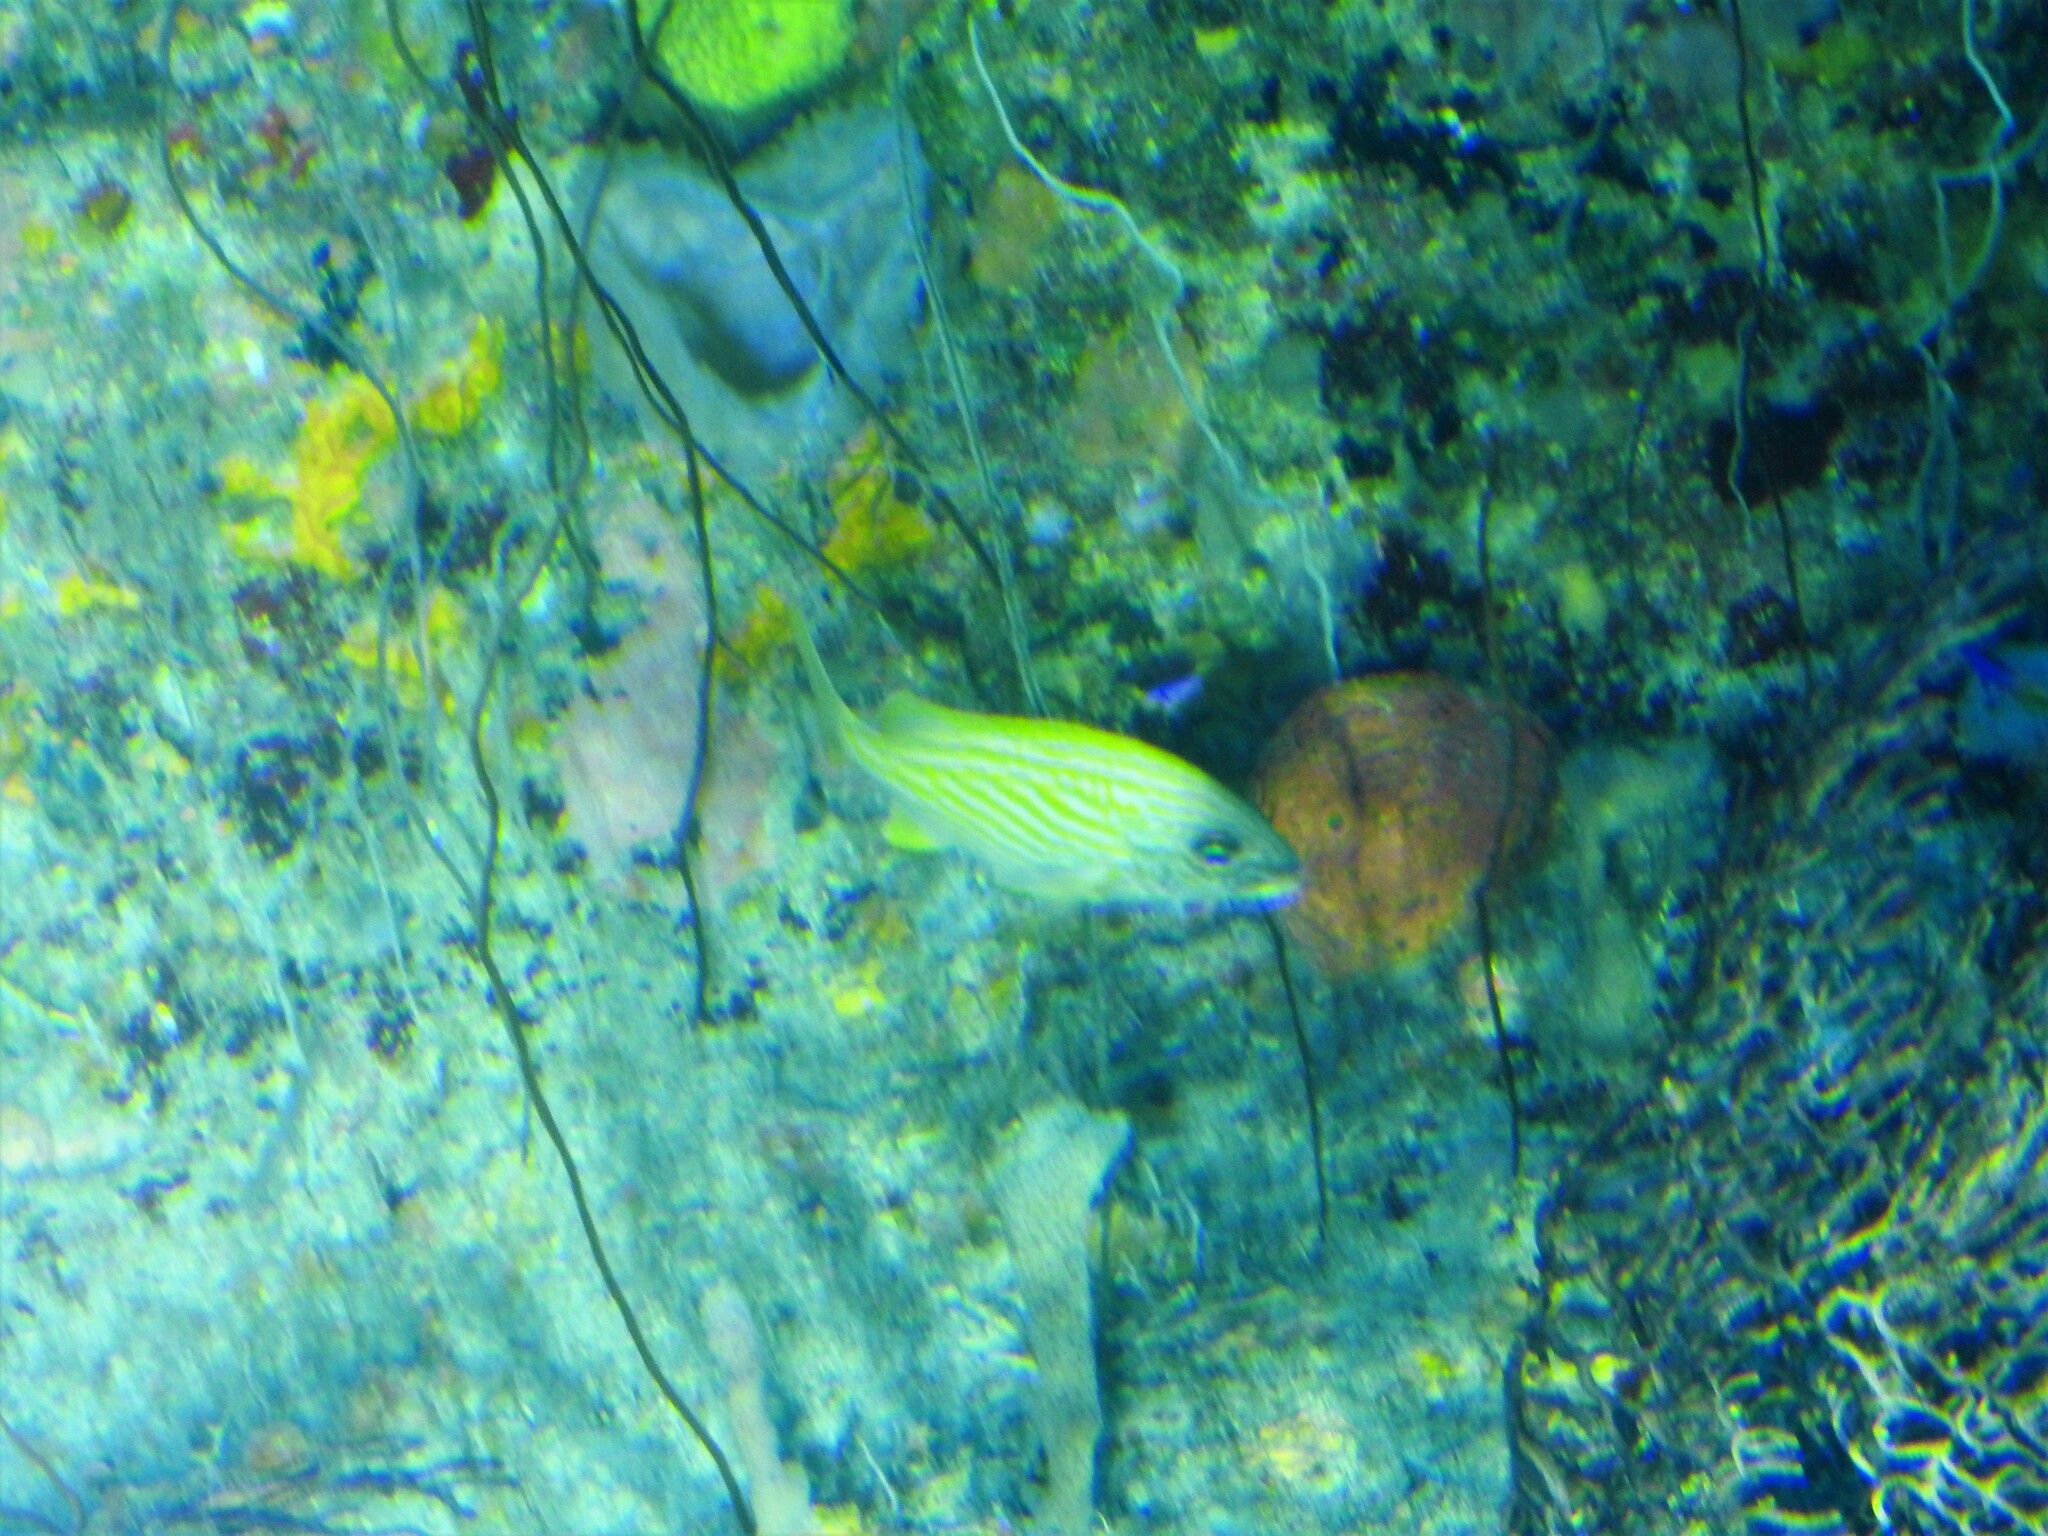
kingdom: Animalia
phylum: Chordata
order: Perciformes
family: Haemulidae
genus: Haemulon
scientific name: Haemulon flavolineatum
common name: French grunt
